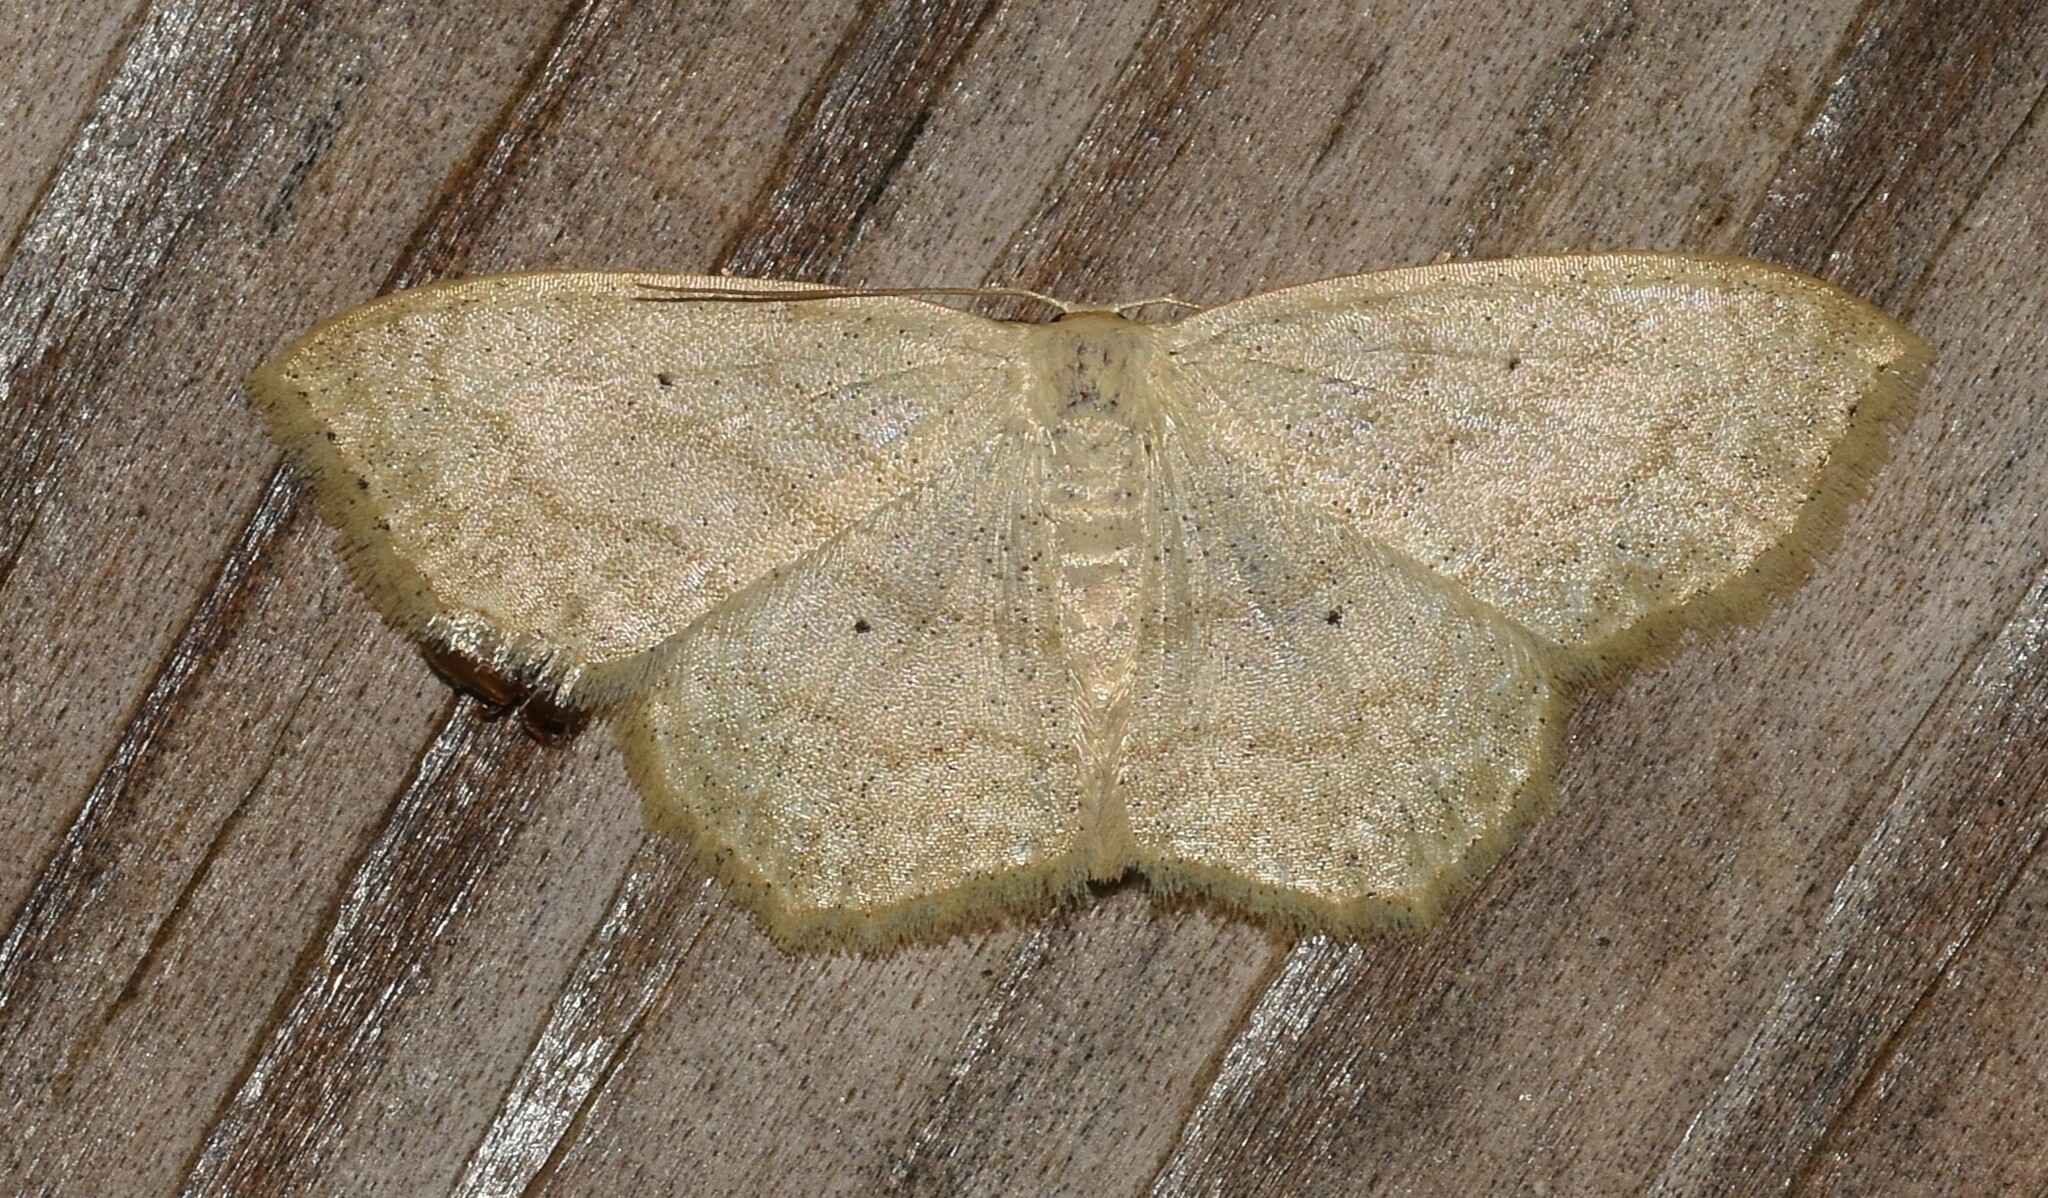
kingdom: Animalia
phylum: Arthropoda
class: Insecta
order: Lepidoptera
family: Geometridae
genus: Scopula
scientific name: Scopula limboundata
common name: Large lace border
